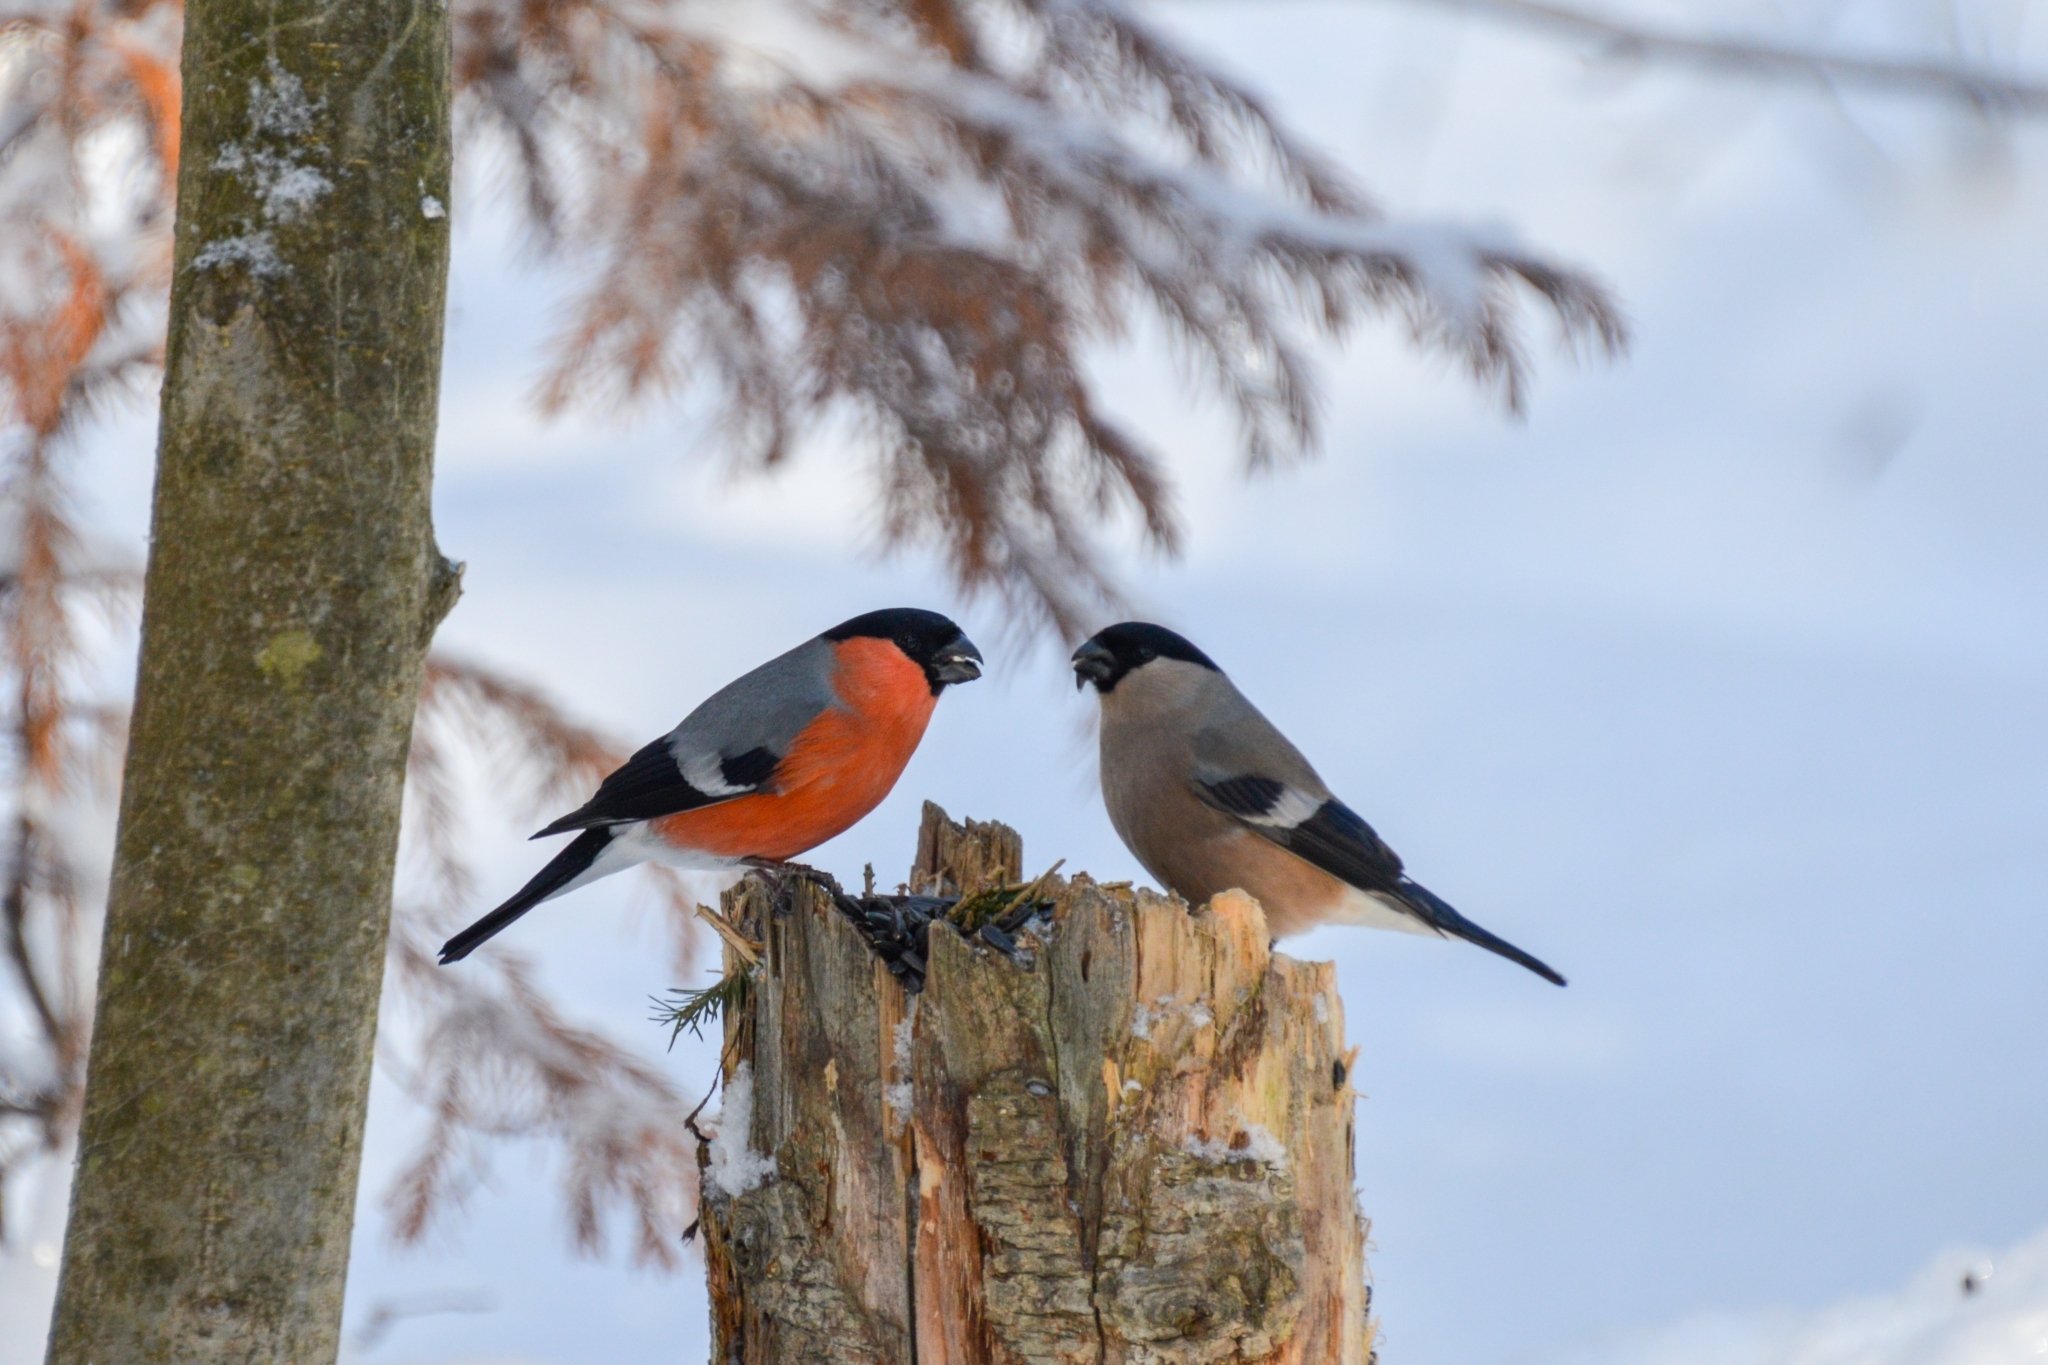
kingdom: Animalia
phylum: Chordata
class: Aves
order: Passeriformes
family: Fringillidae
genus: Pyrrhula
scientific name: Pyrrhula pyrrhula
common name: Eurasian bullfinch
